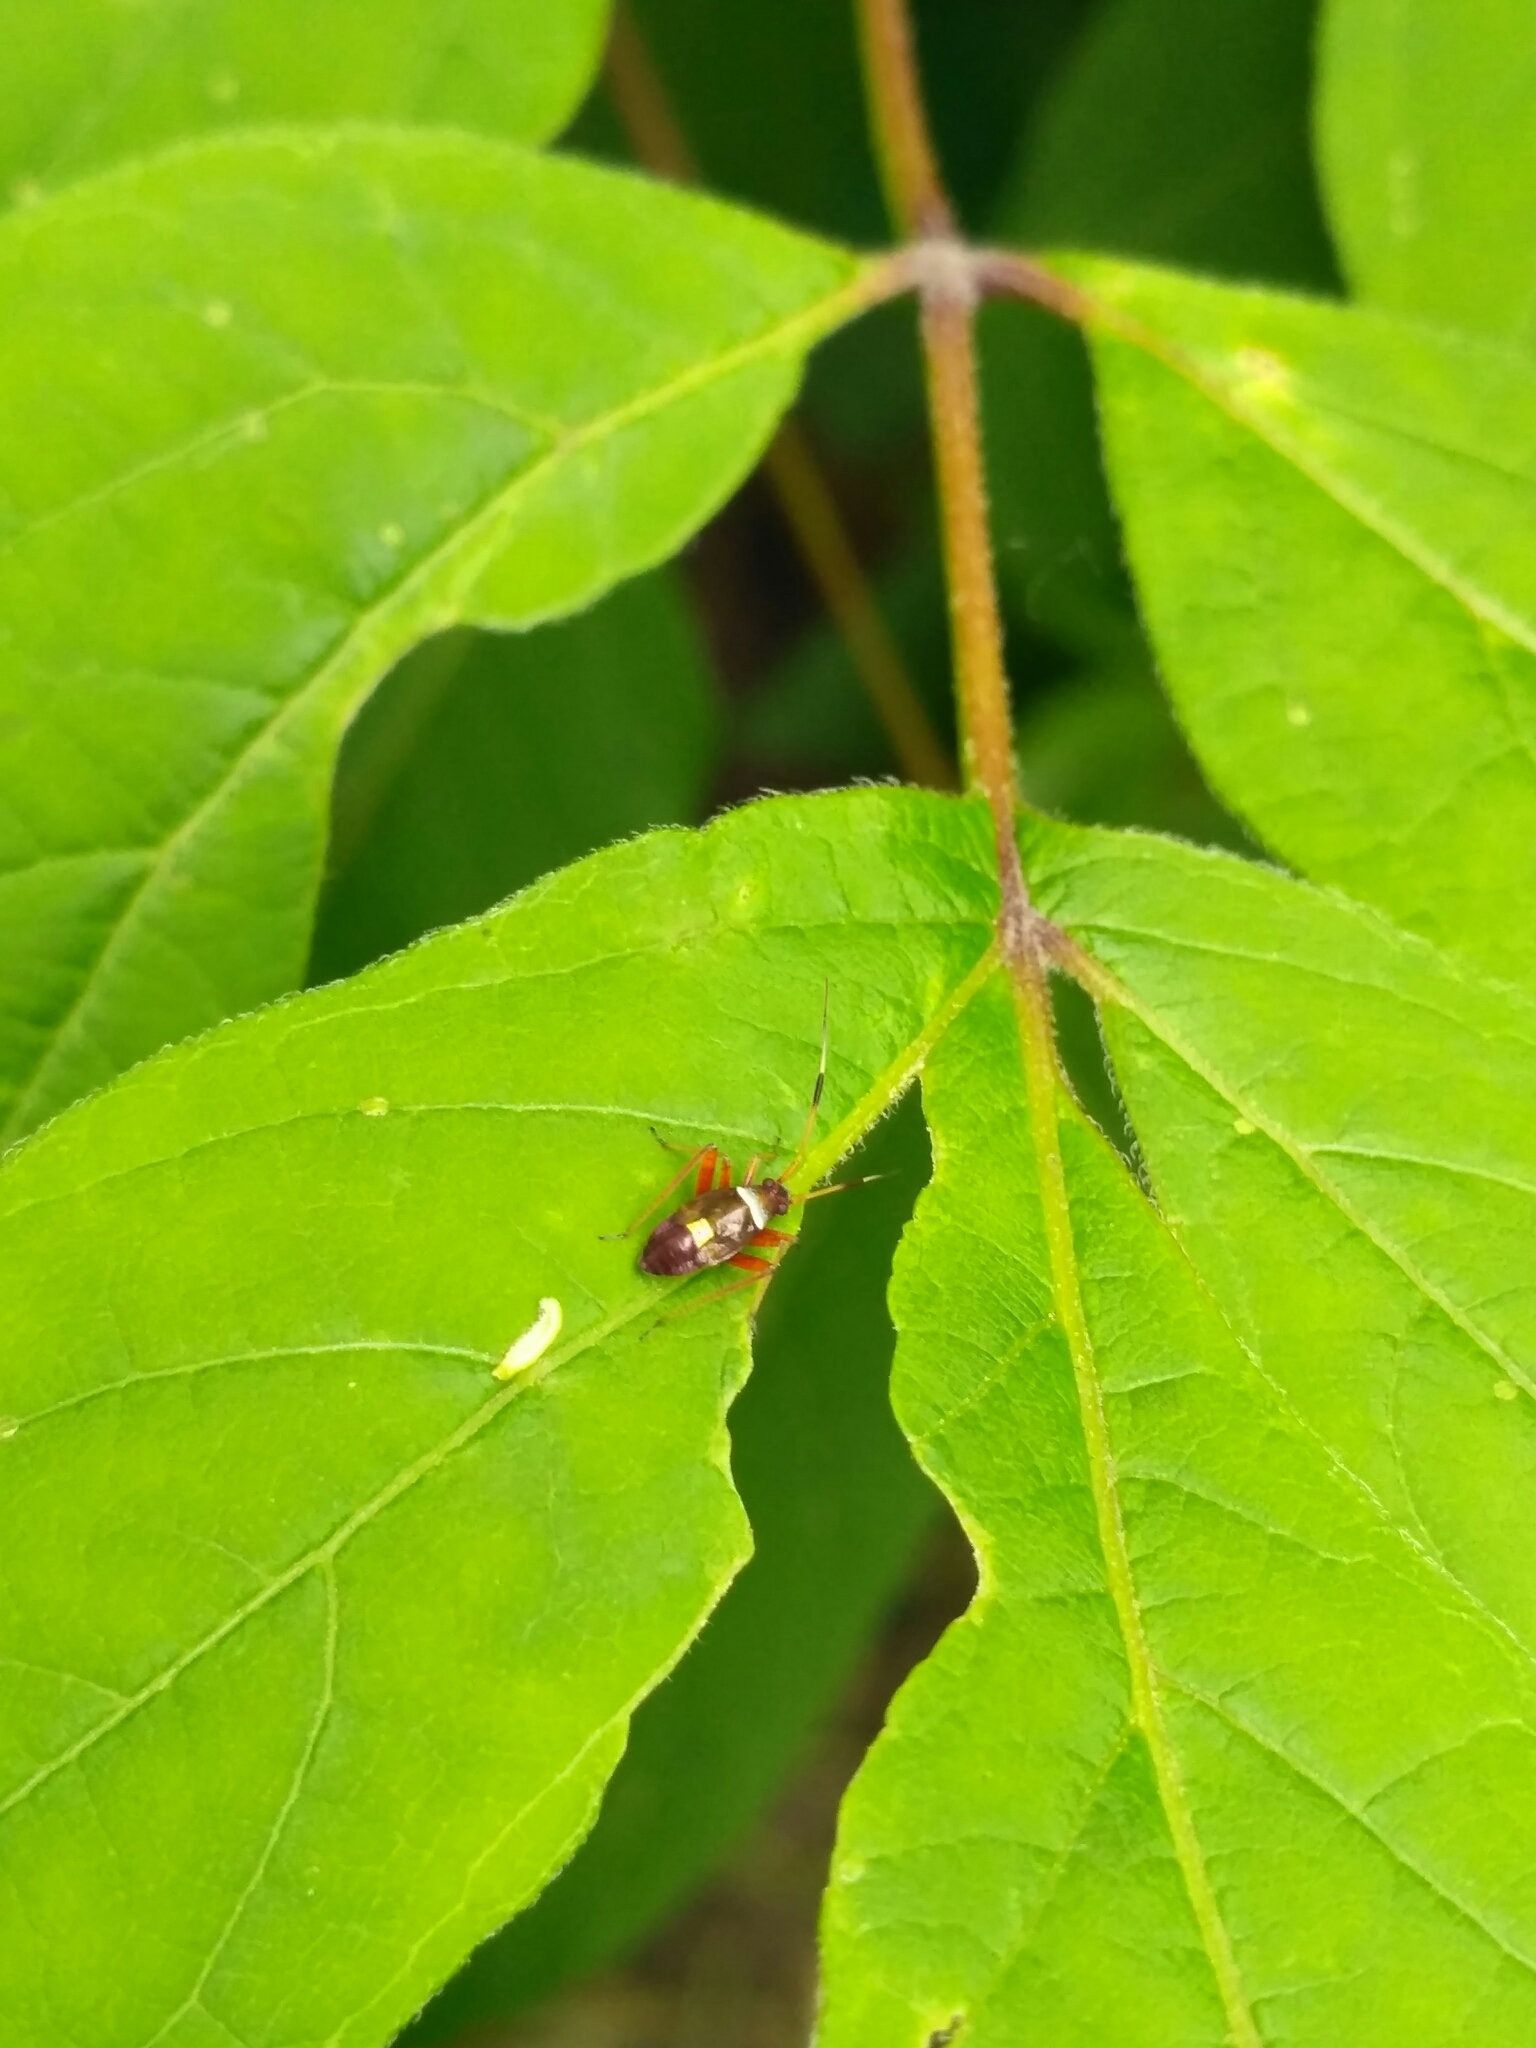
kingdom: Animalia
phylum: Arthropoda
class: Insecta
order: Hemiptera
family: Miridae
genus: Closterotomus
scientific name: Closterotomus biclavatus
